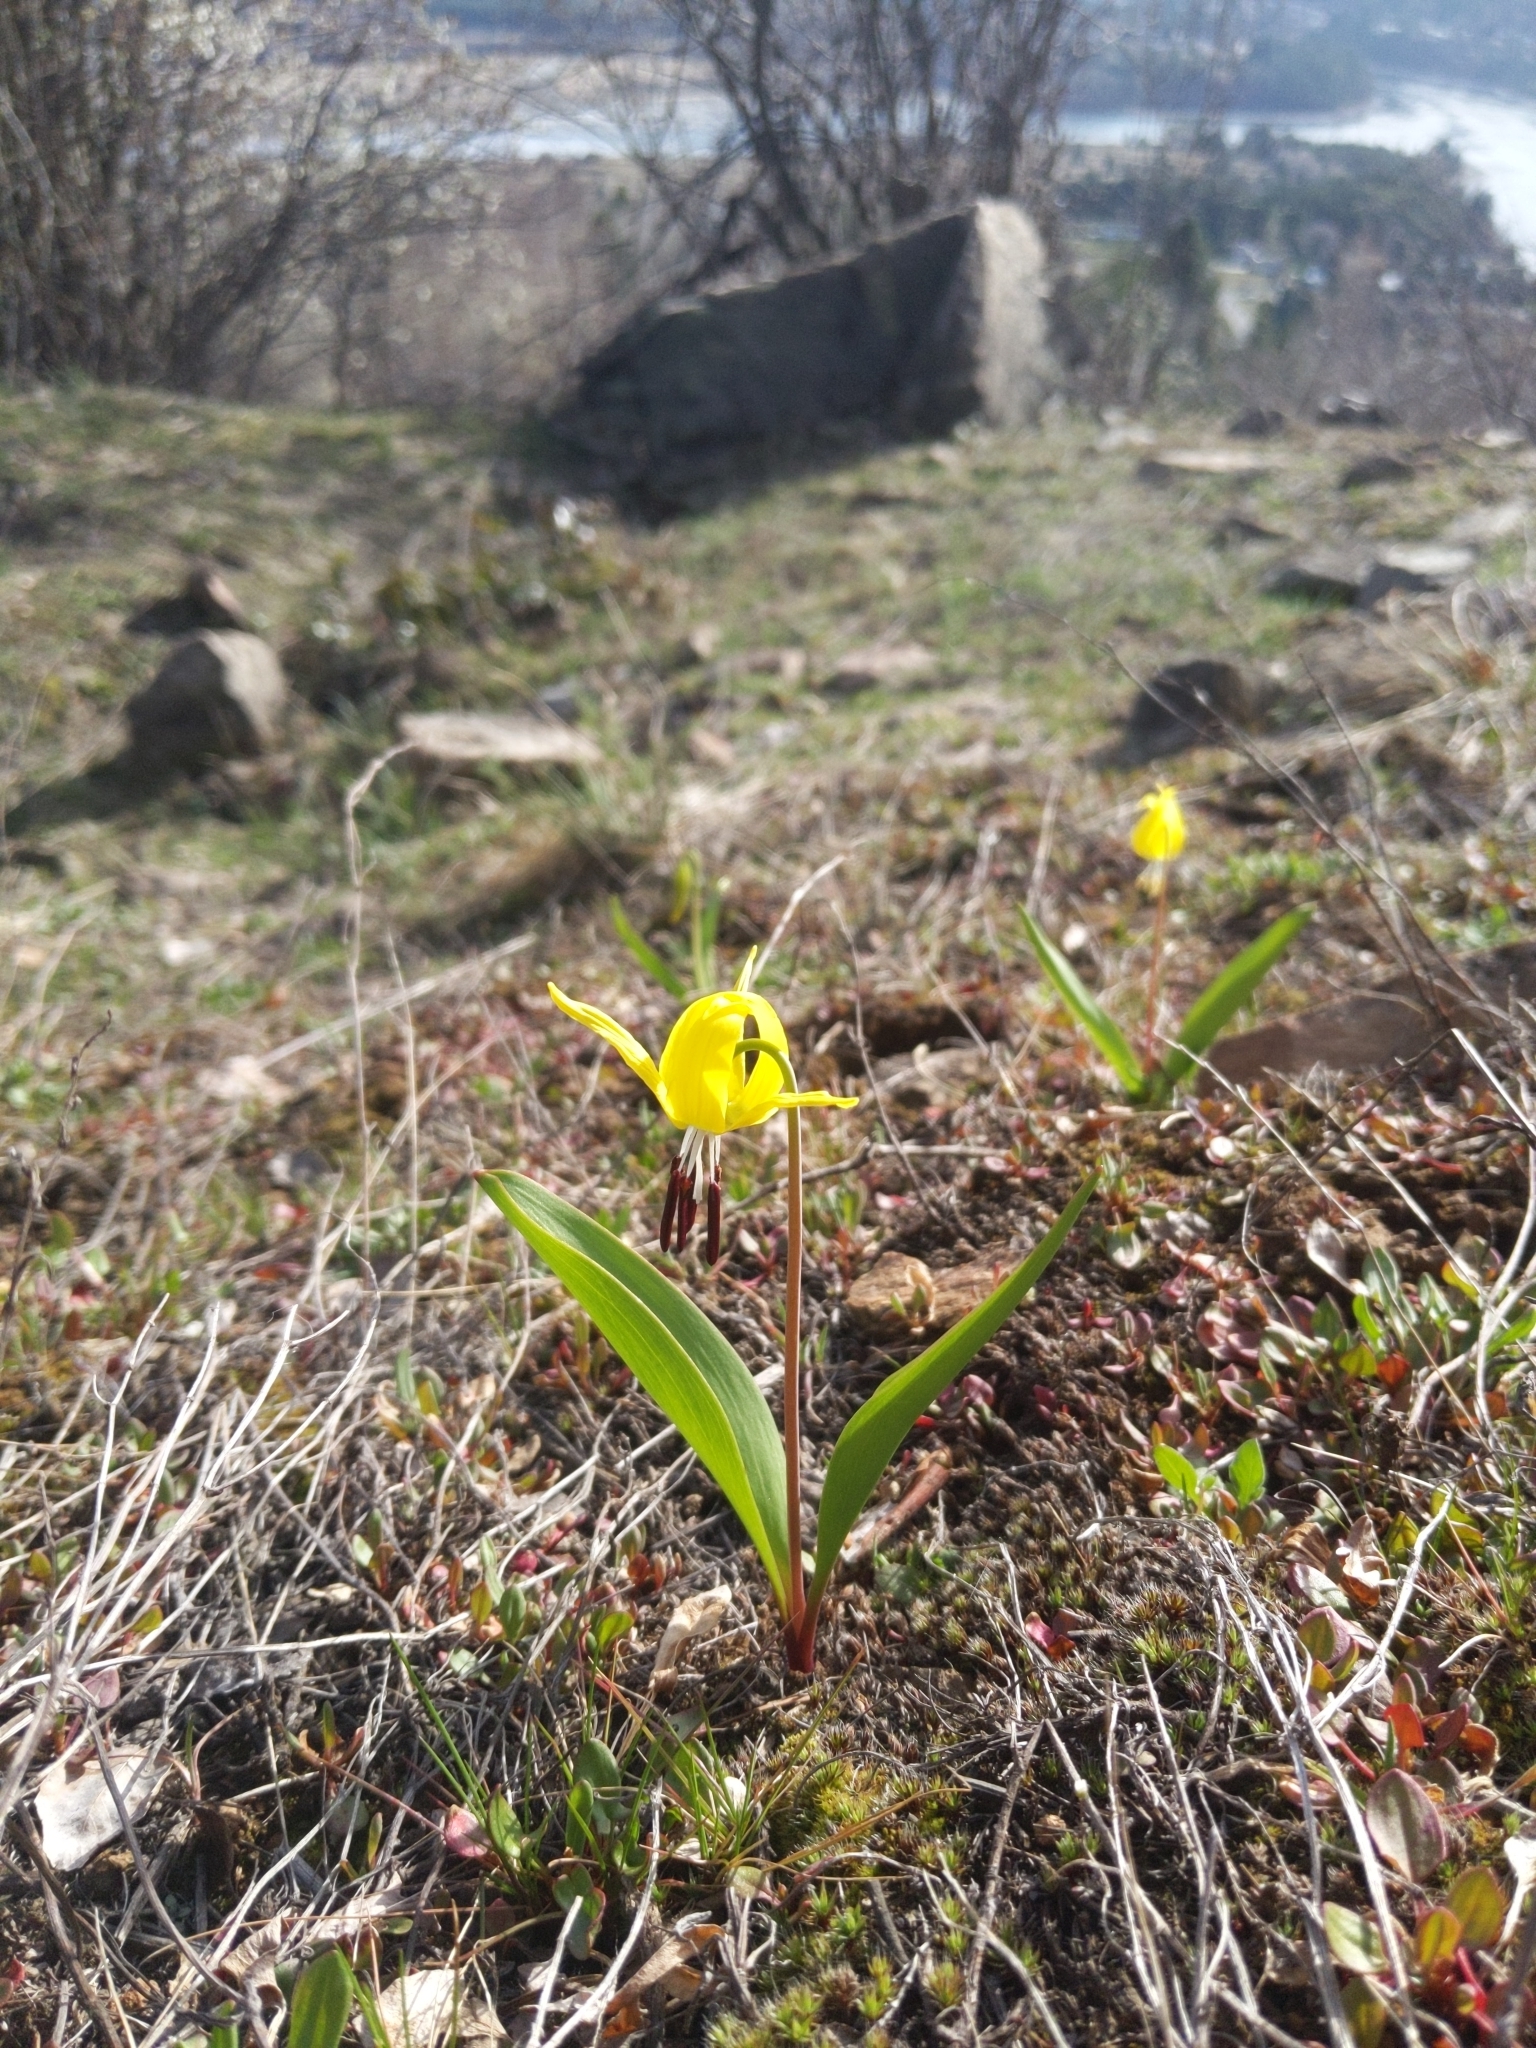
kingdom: Plantae
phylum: Tracheophyta
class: Liliopsida
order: Liliales
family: Liliaceae
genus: Erythronium
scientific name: Erythronium grandiflorum
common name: Avalanche-lily
